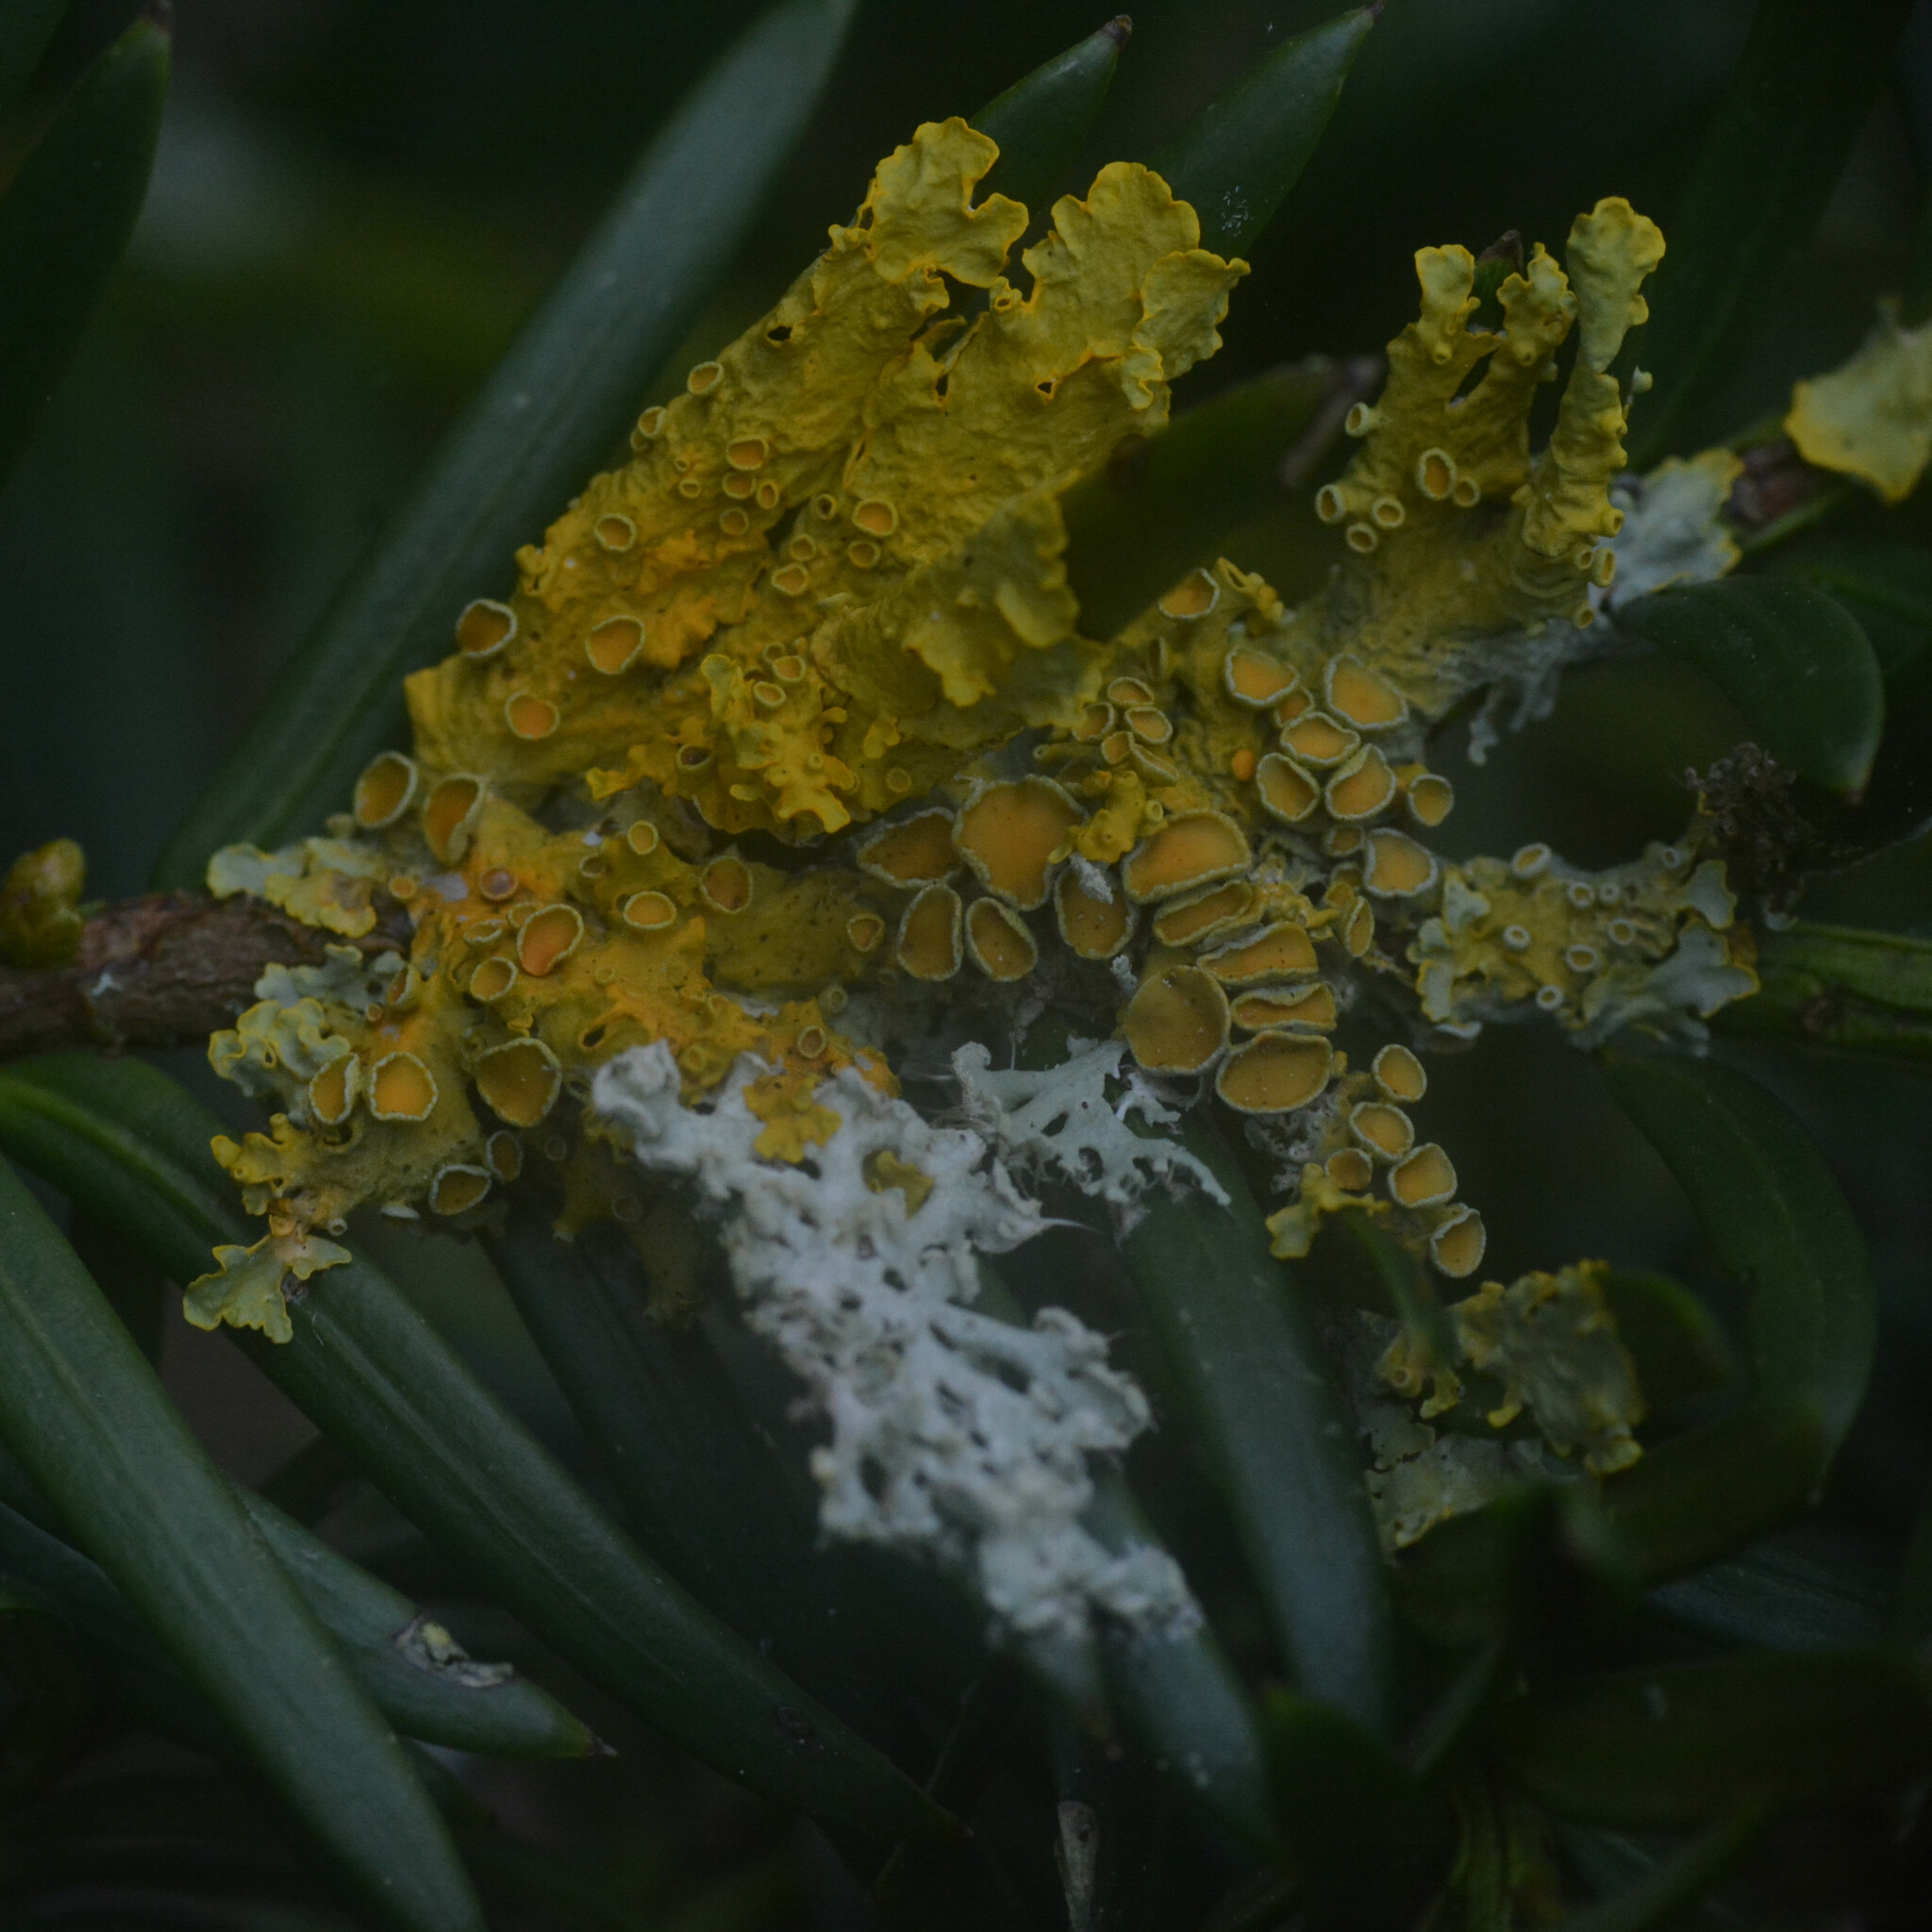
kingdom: Fungi
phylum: Ascomycota
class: Lecanoromycetes
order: Teloschistales
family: Teloschistaceae
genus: Xanthoria
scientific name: Xanthoria parietina
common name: Common orange lichen
